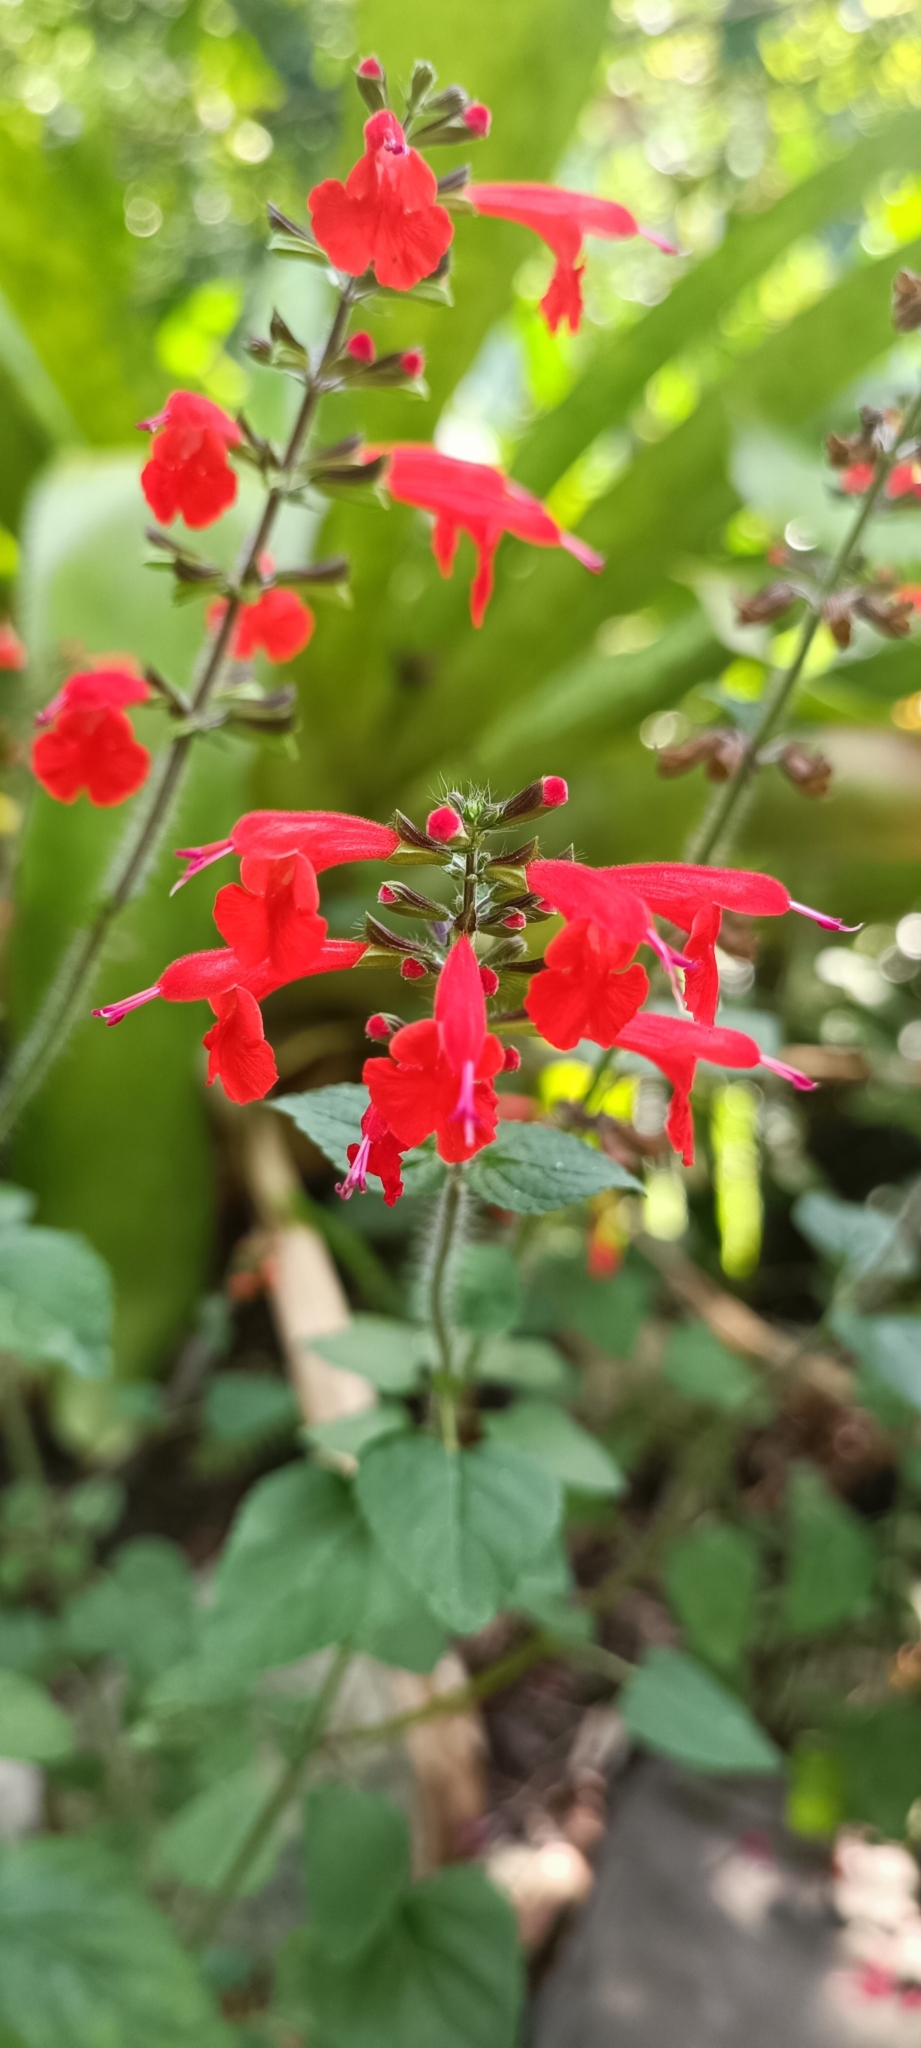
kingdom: Plantae
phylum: Tracheophyta
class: Magnoliopsida
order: Lamiales
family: Lamiaceae
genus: Salvia
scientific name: Salvia coccinea
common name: Blood sage
